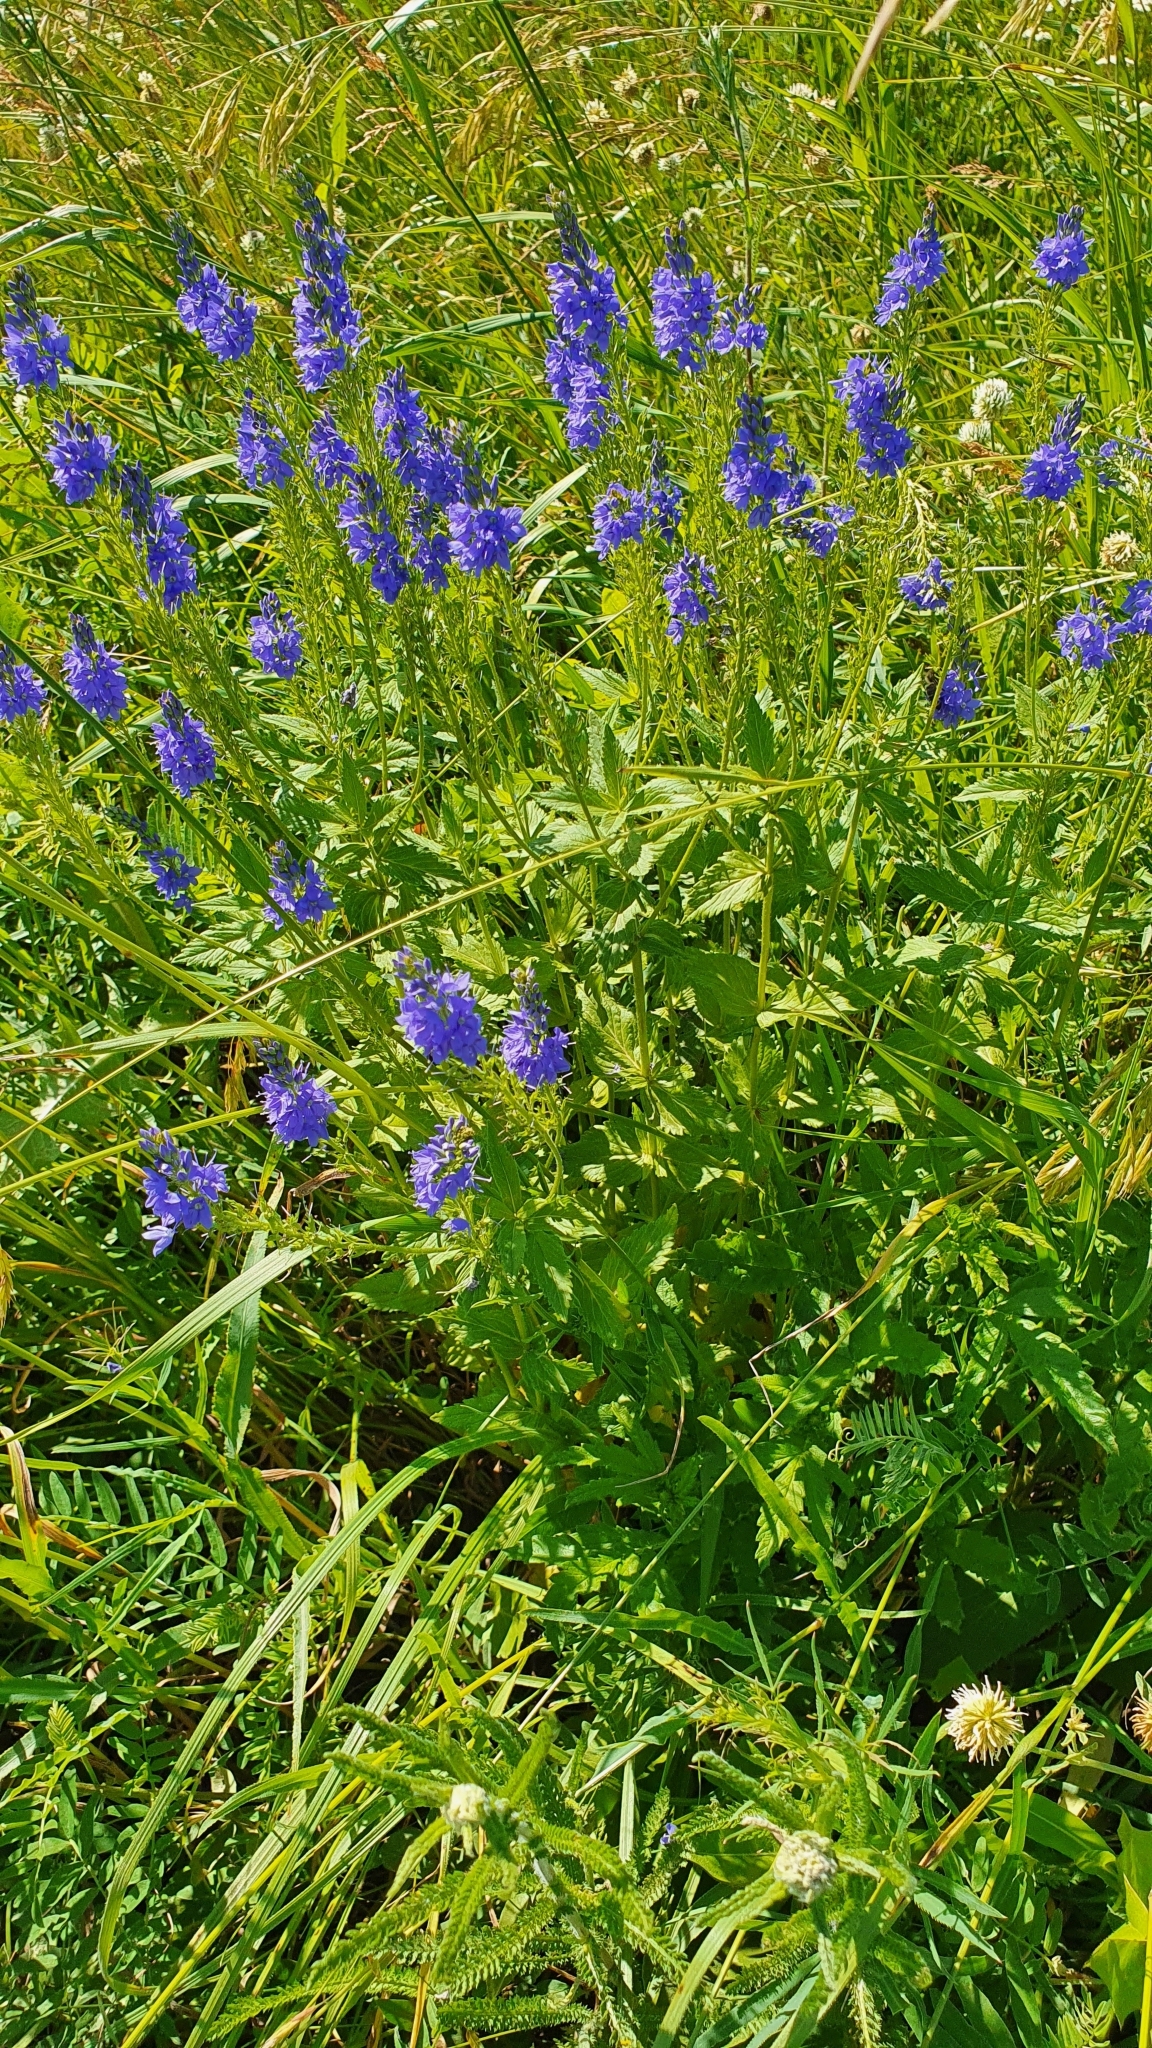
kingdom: Plantae
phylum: Tracheophyta
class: Magnoliopsida
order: Lamiales
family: Plantaginaceae
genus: Veronica
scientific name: Veronica teucrium
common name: Large speedwell
